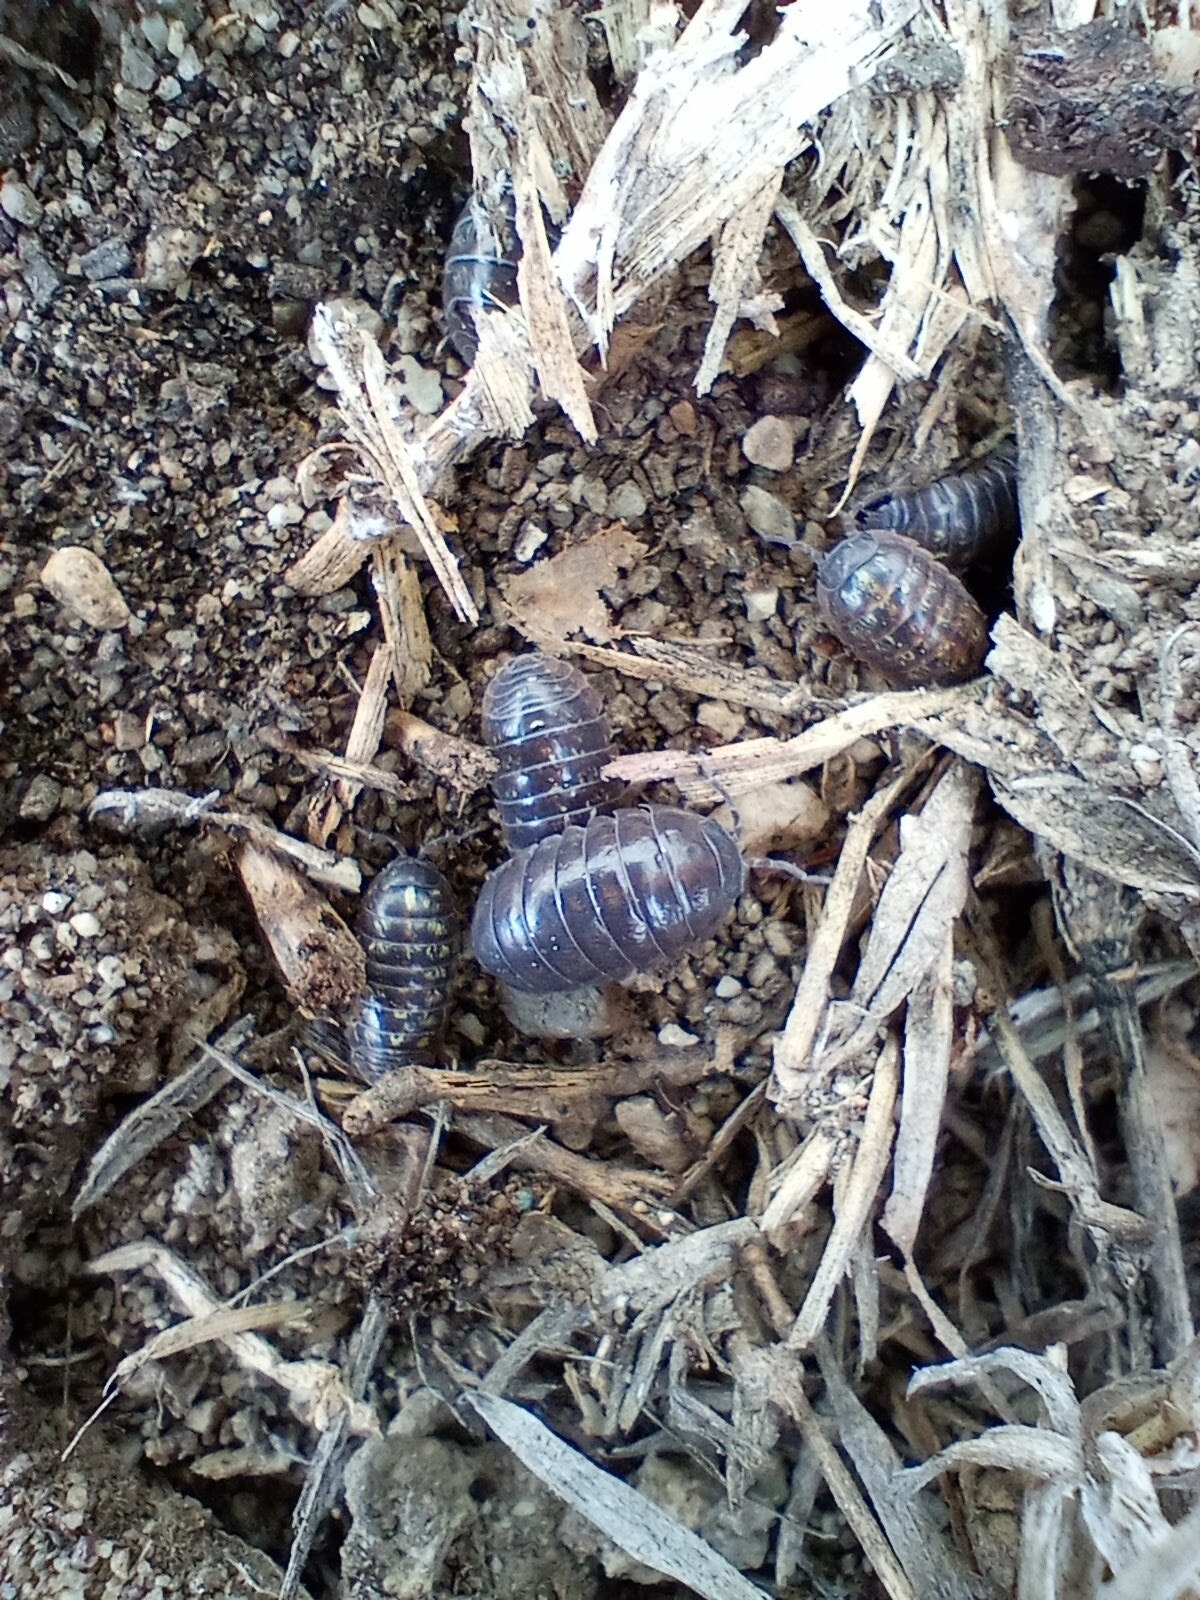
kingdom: Animalia
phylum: Arthropoda
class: Malacostraca
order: Isopoda
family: Armadillidiidae
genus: Armadillidium
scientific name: Armadillidium vulgare
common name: Common pill woodlouse
